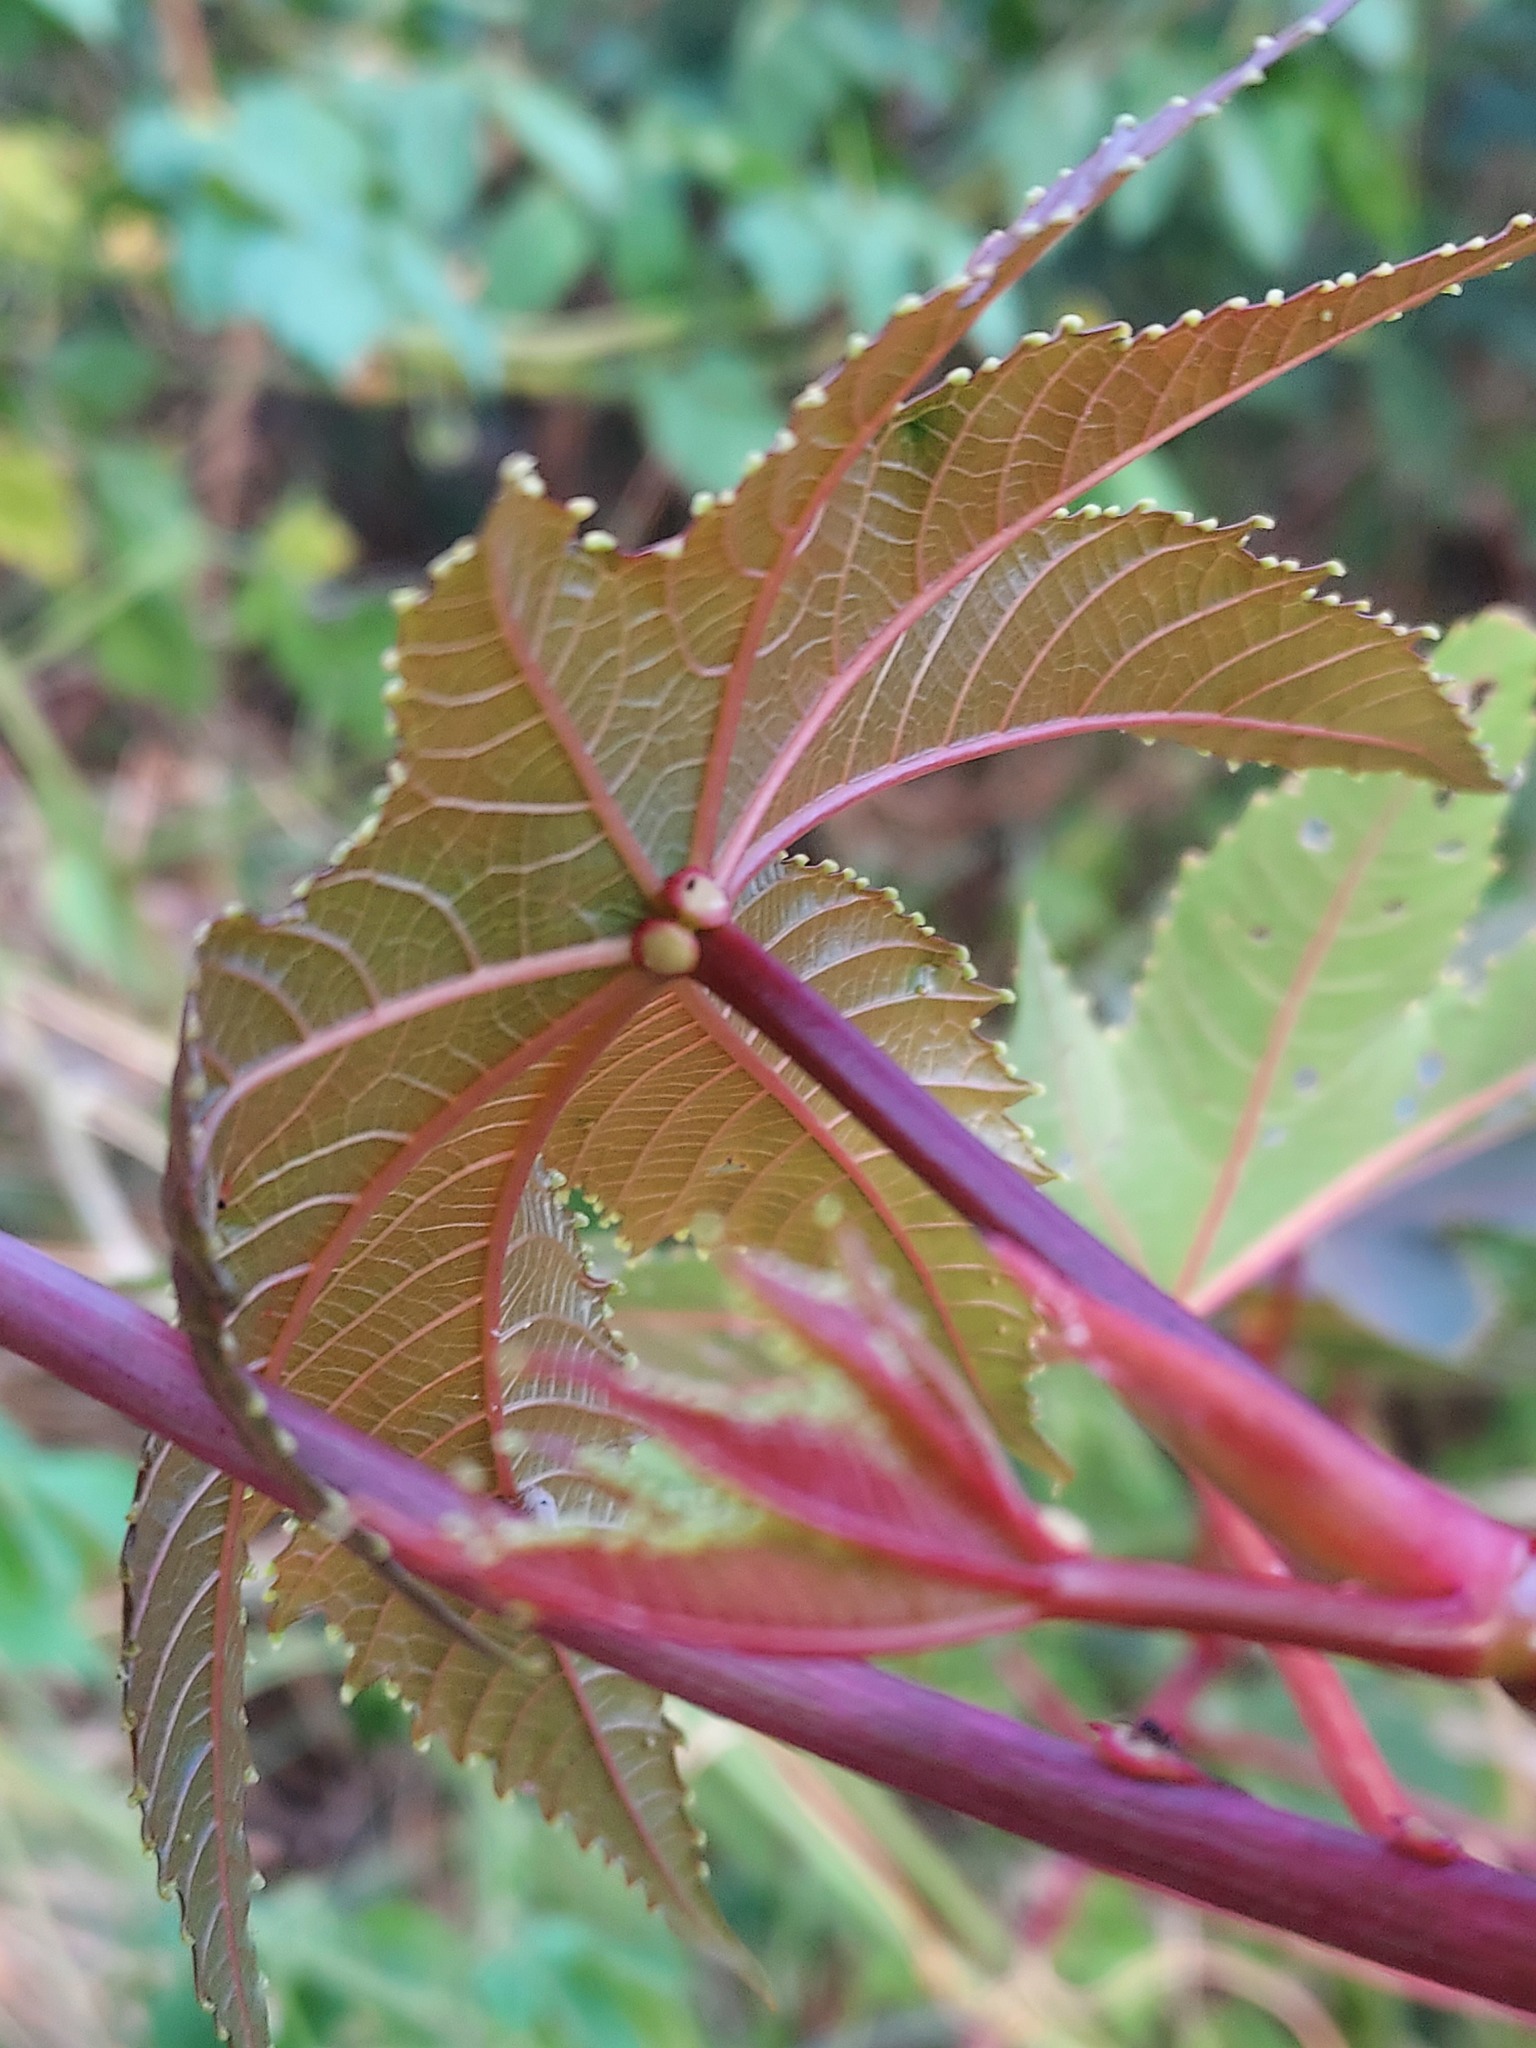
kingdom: Plantae
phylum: Tracheophyta
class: Magnoliopsida
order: Malpighiales
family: Euphorbiaceae
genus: Ricinus
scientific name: Ricinus communis
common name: Castor-oil-plant
